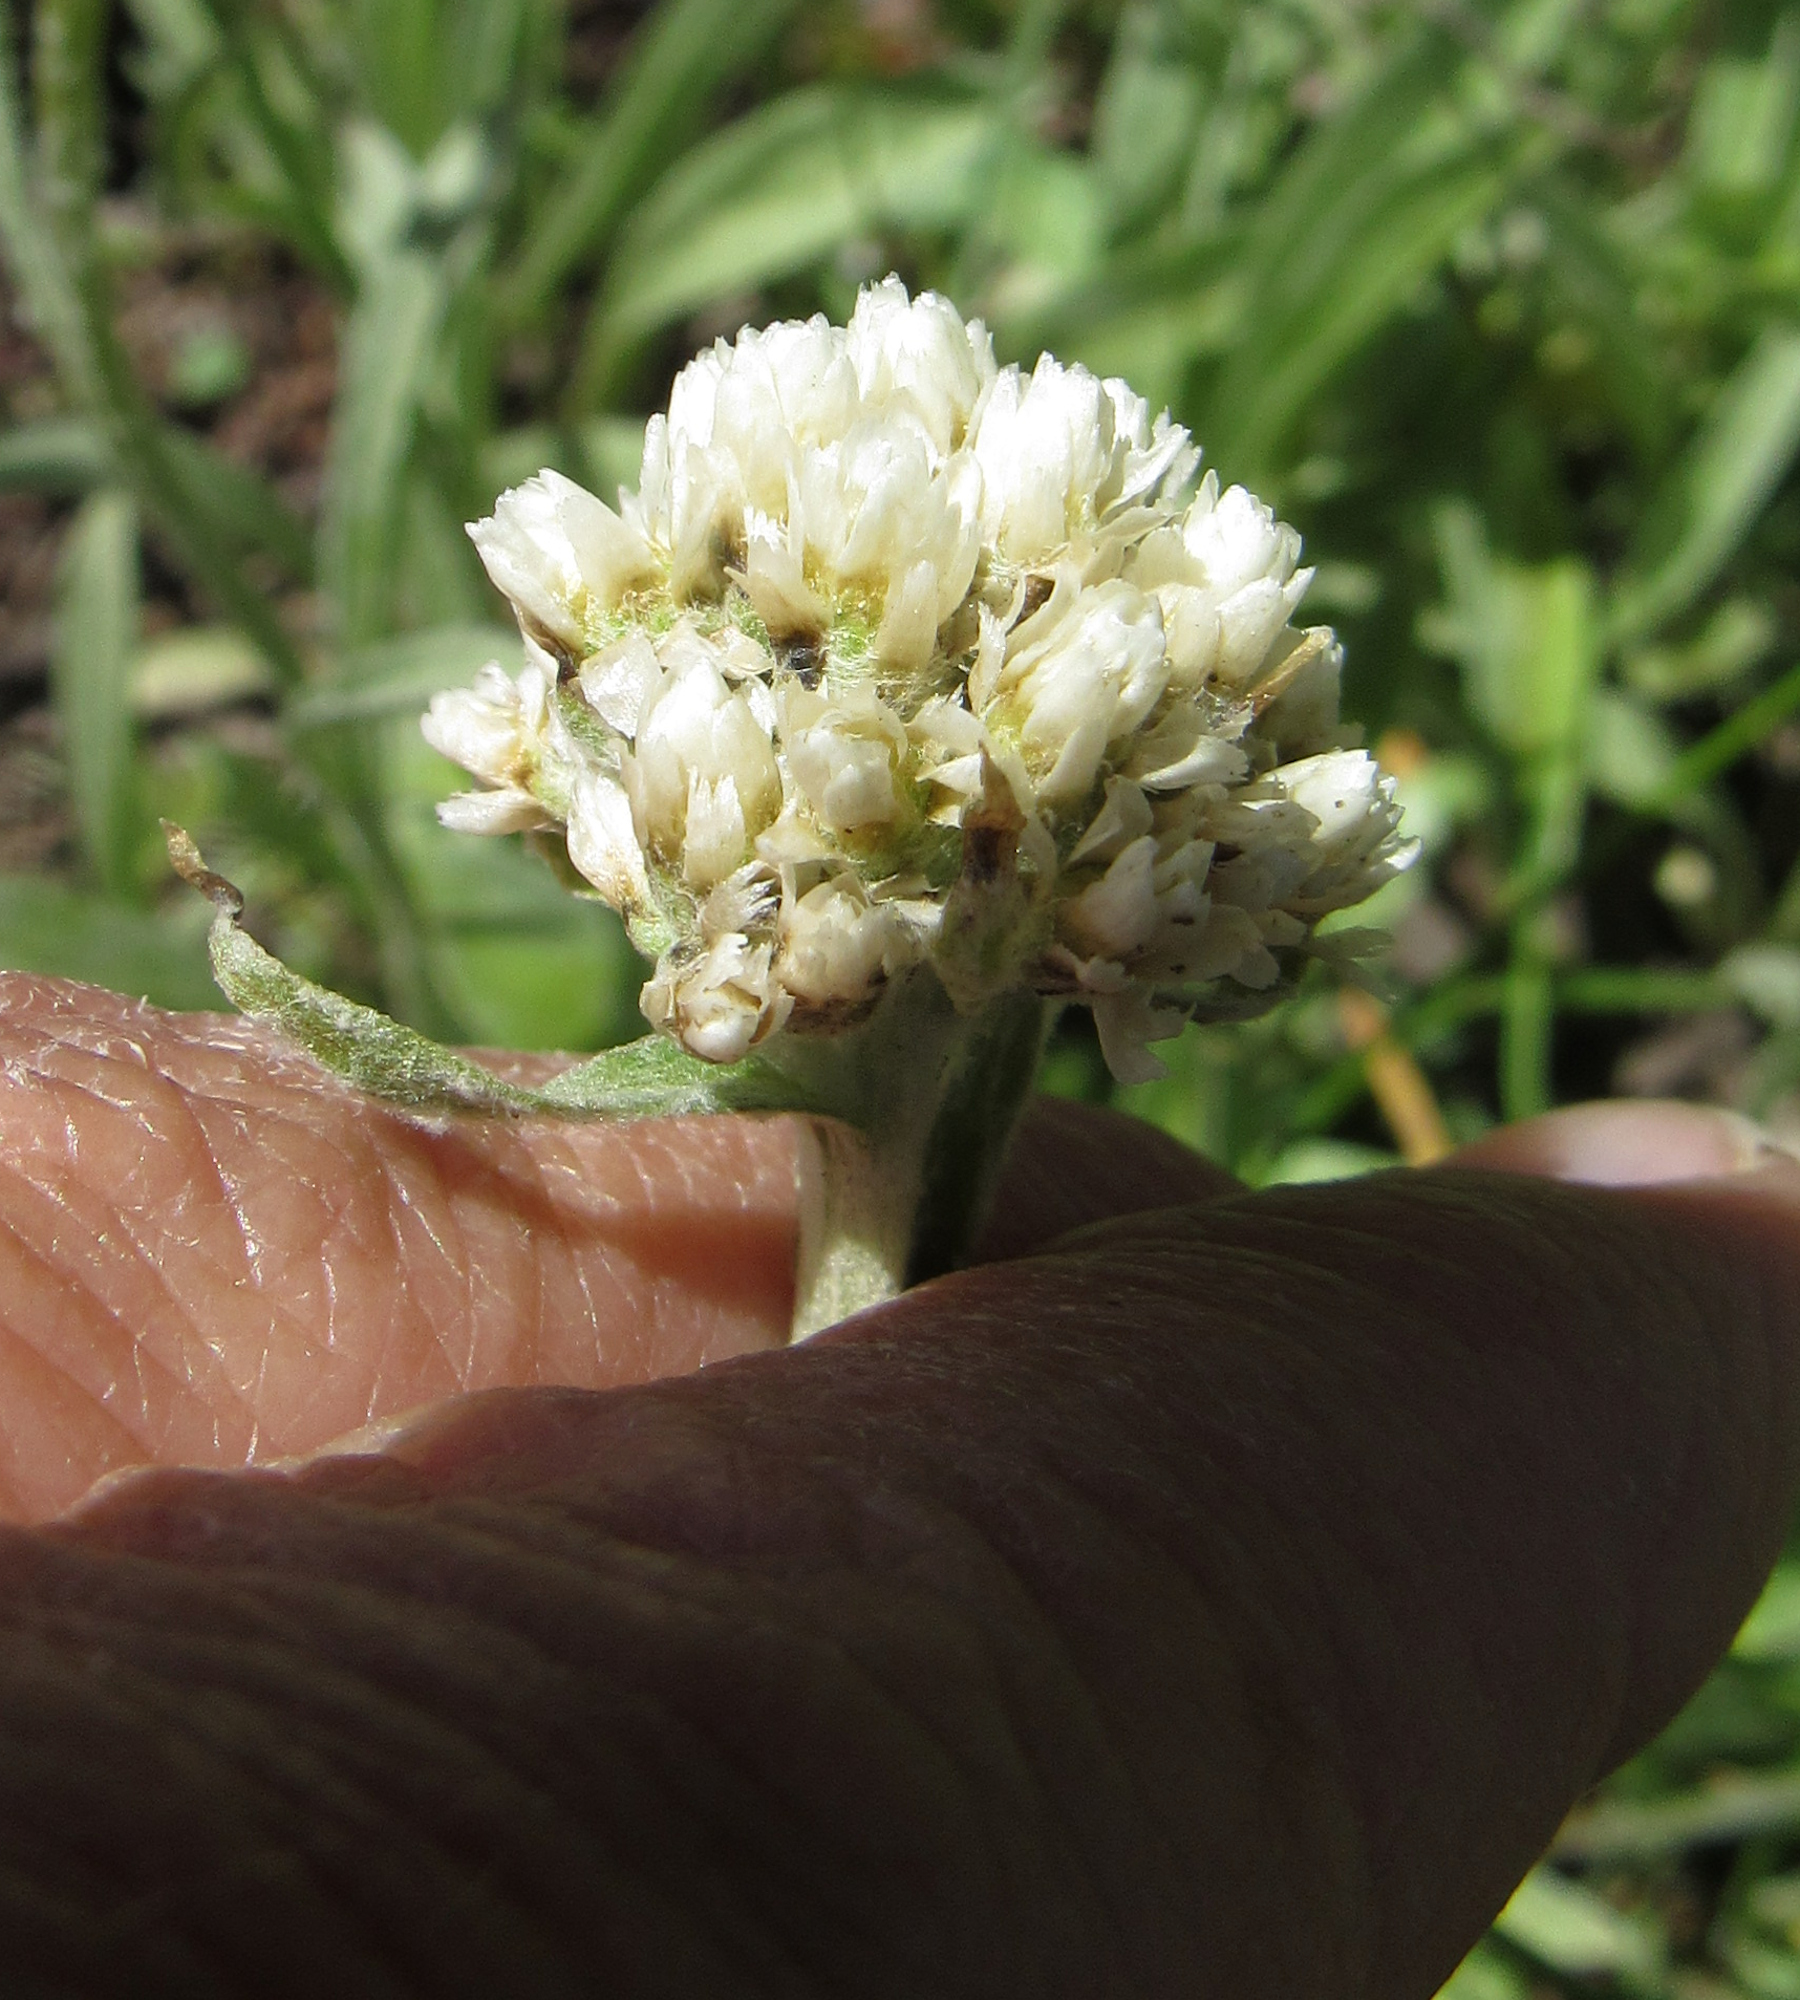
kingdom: Plantae
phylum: Tracheophyta
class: Magnoliopsida
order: Asterales
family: Asteraceae
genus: Antennaria
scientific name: Antennaria anaphaloides
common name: Tall pussytoes
